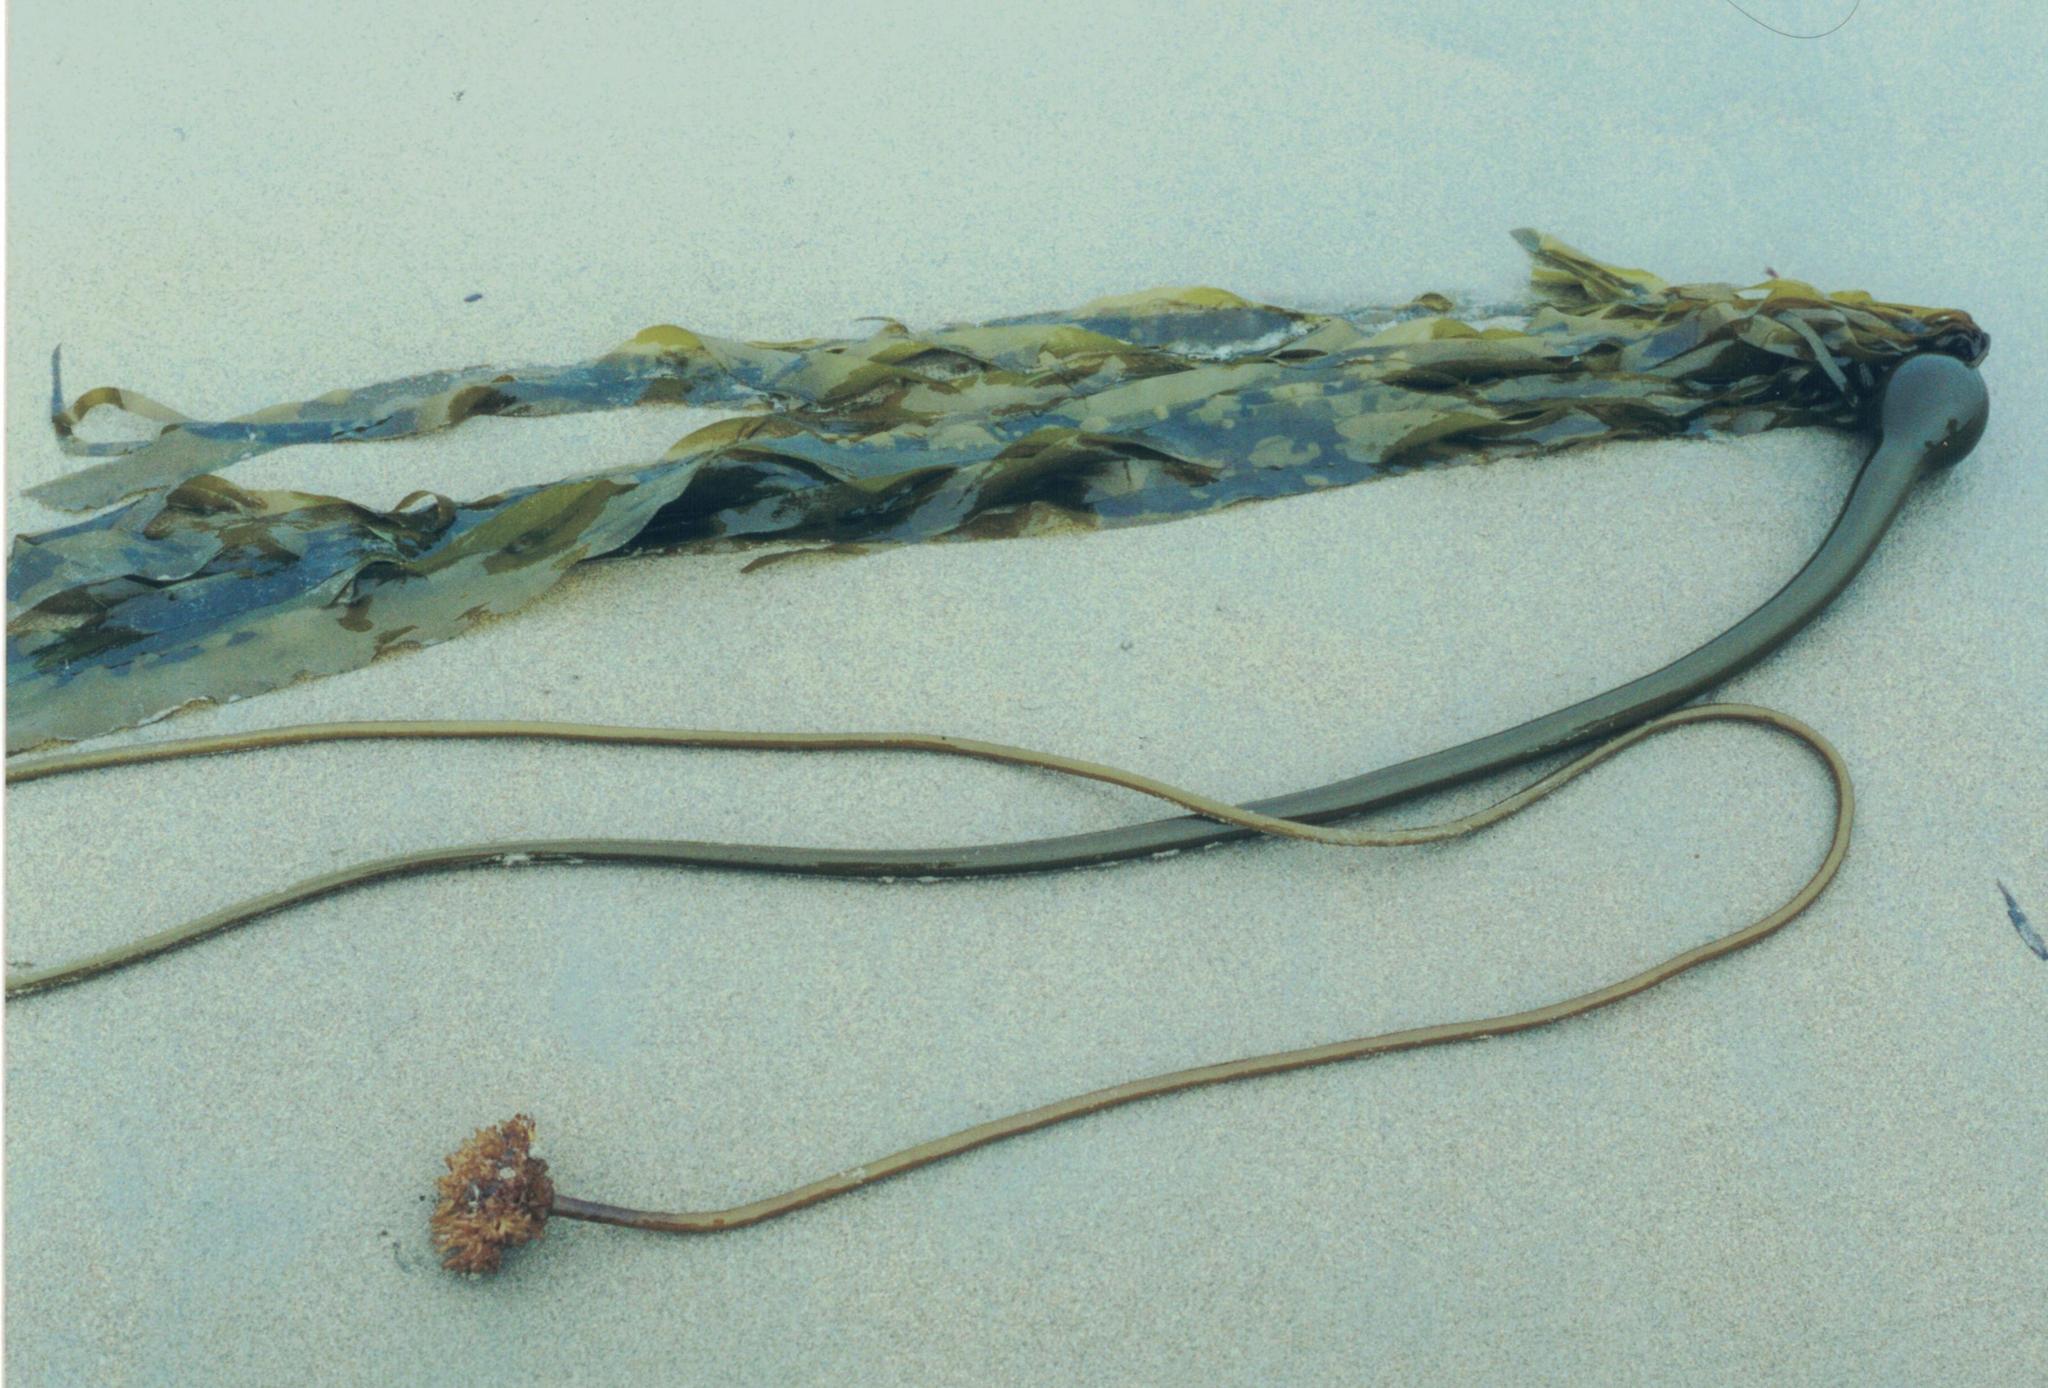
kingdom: Chromista
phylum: Ochrophyta
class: Phaeophyceae
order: Laminariales
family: Laminariaceae
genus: Nereocystis
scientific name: Nereocystis luetkeana
